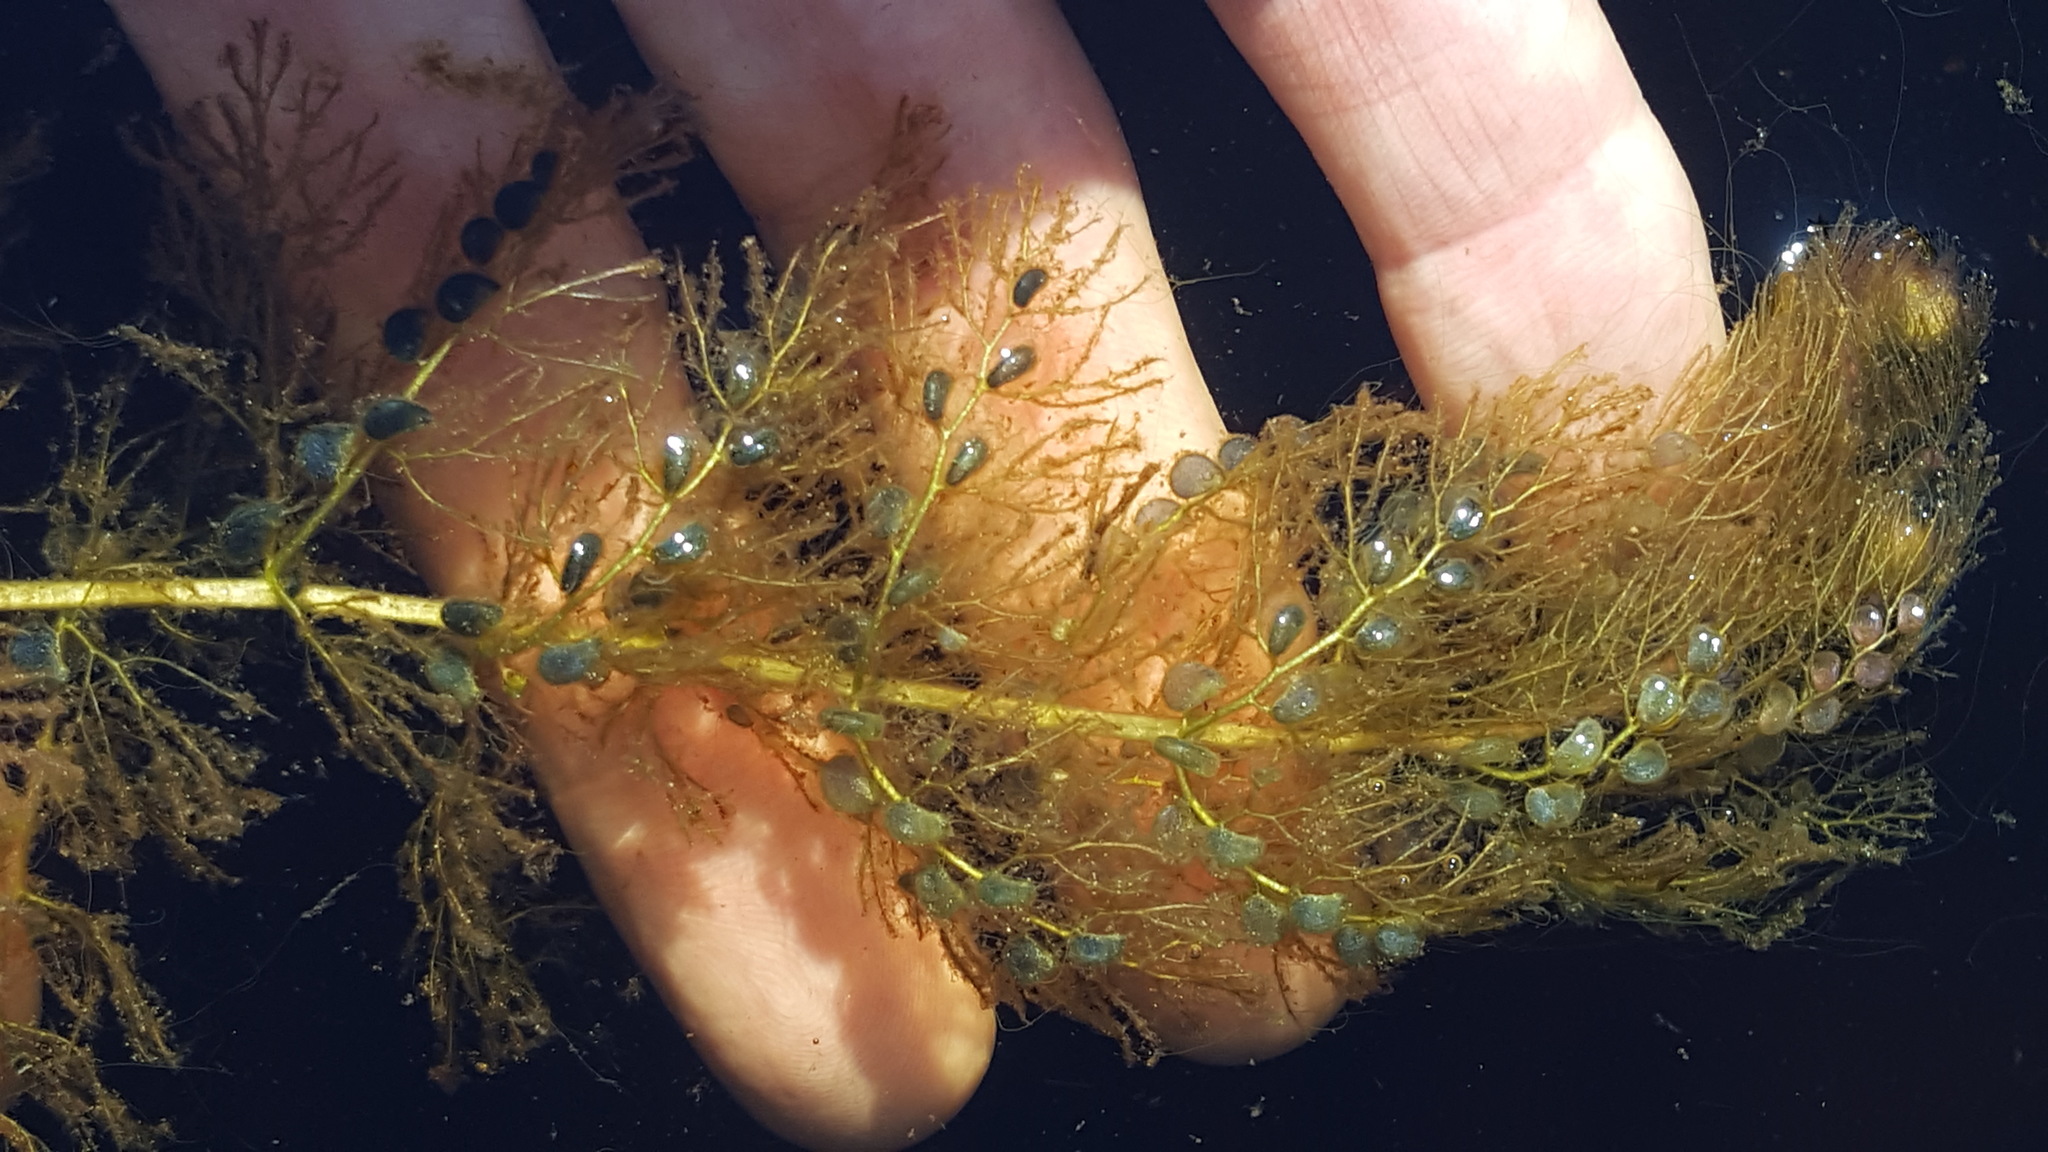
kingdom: Plantae
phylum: Tracheophyta
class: Magnoliopsida
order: Lamiales
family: Lentibulariaceae
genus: Utricularia
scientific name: Utricularia macrorhiza
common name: Common bladderwort
